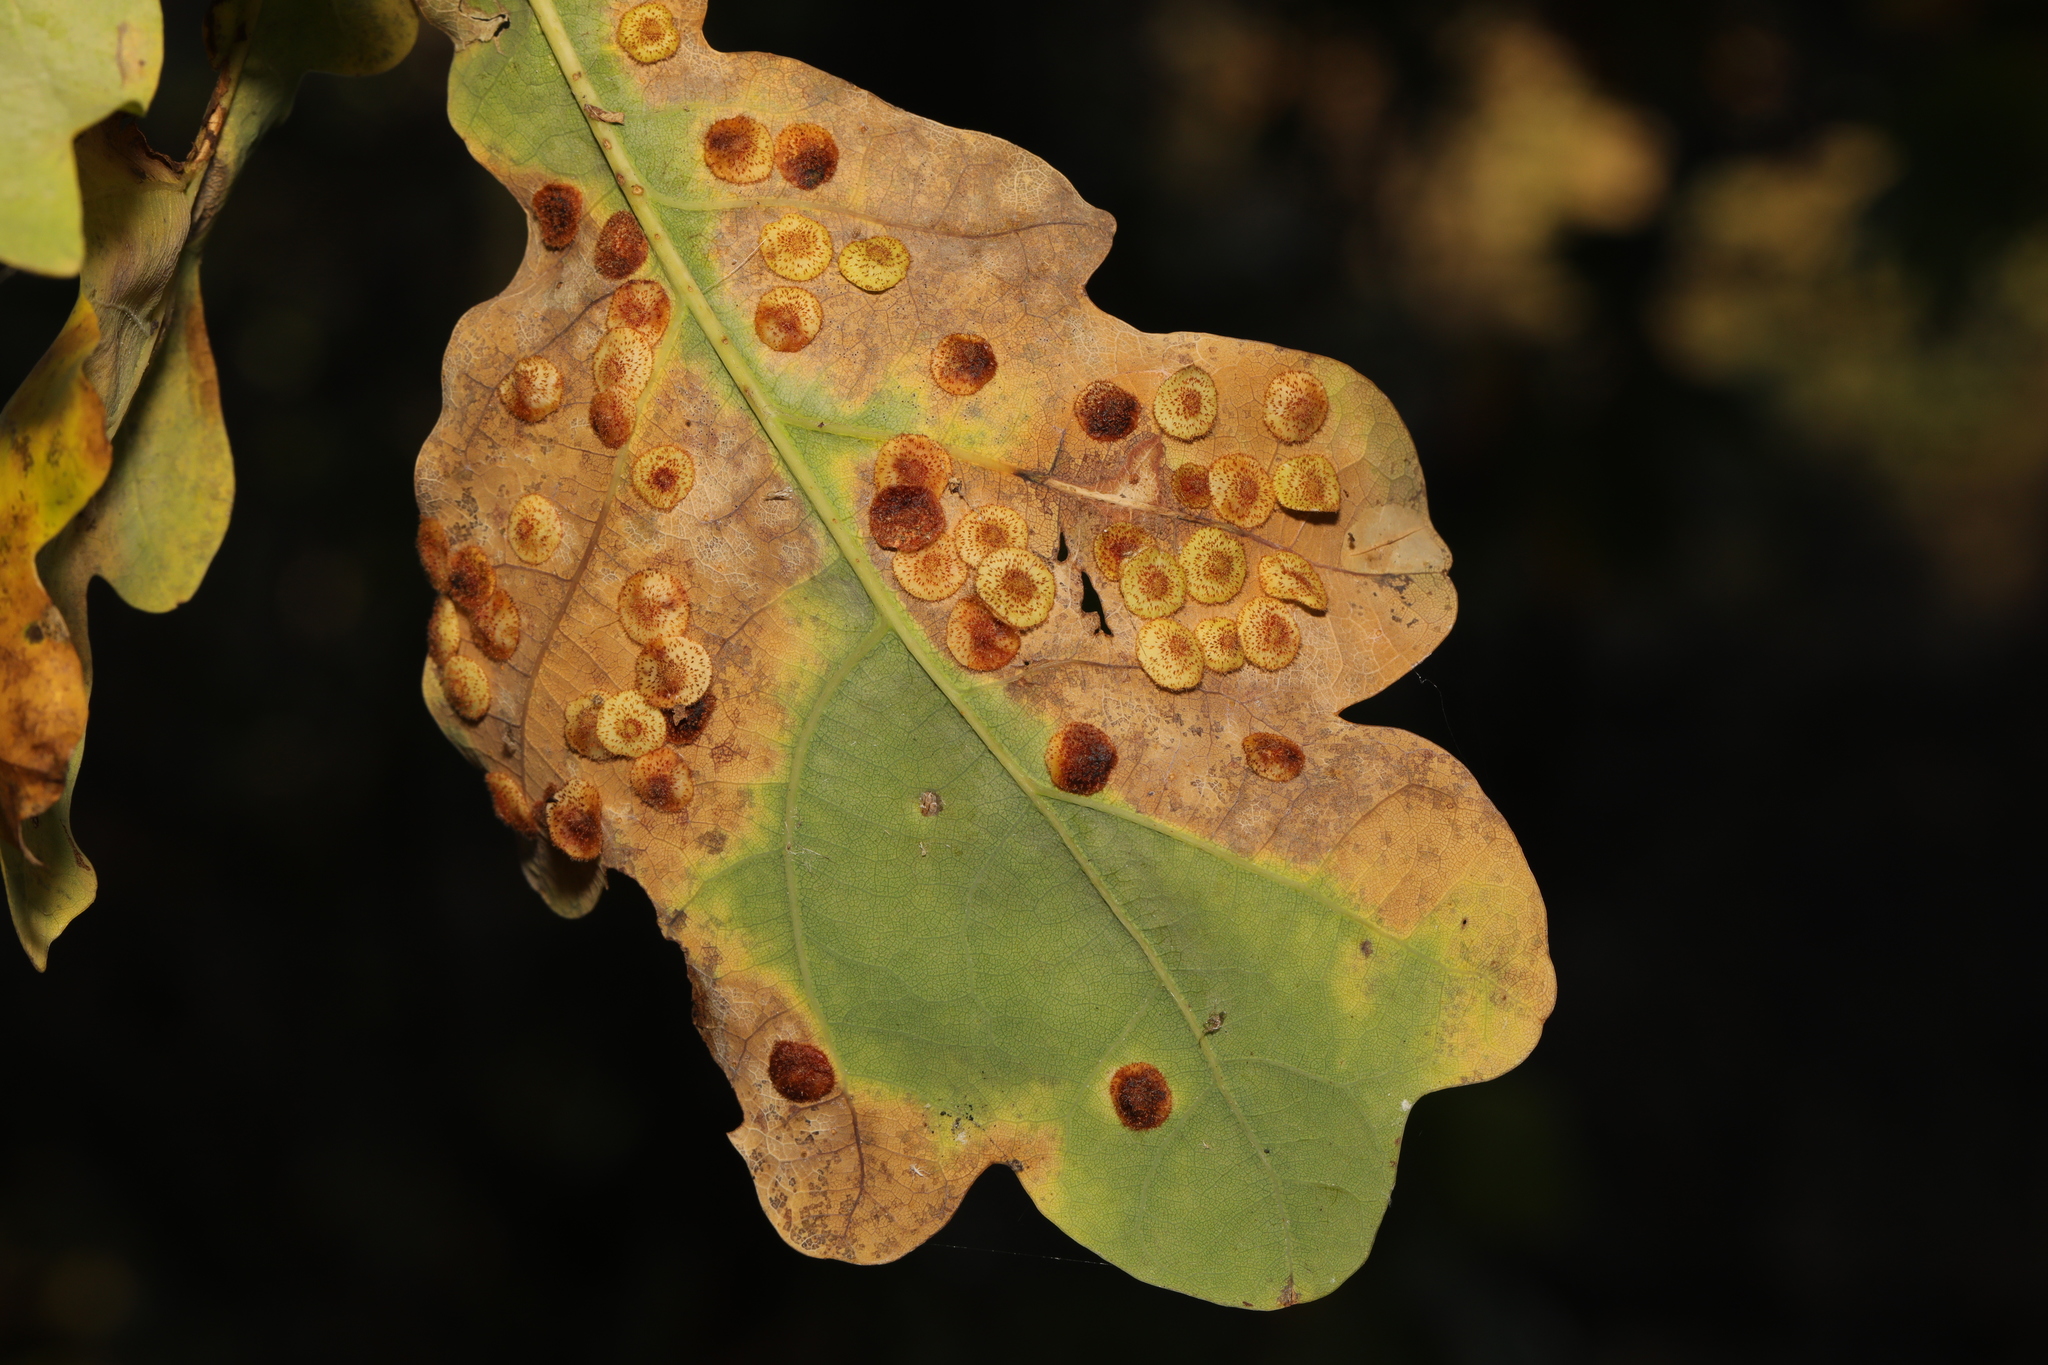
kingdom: Animalia
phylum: Arthropoda
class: Insecta
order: Hymenoptera
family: Cynipidae
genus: Neuroterus
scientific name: Neuroterus quercusbaccarum
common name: Common spangle gall
